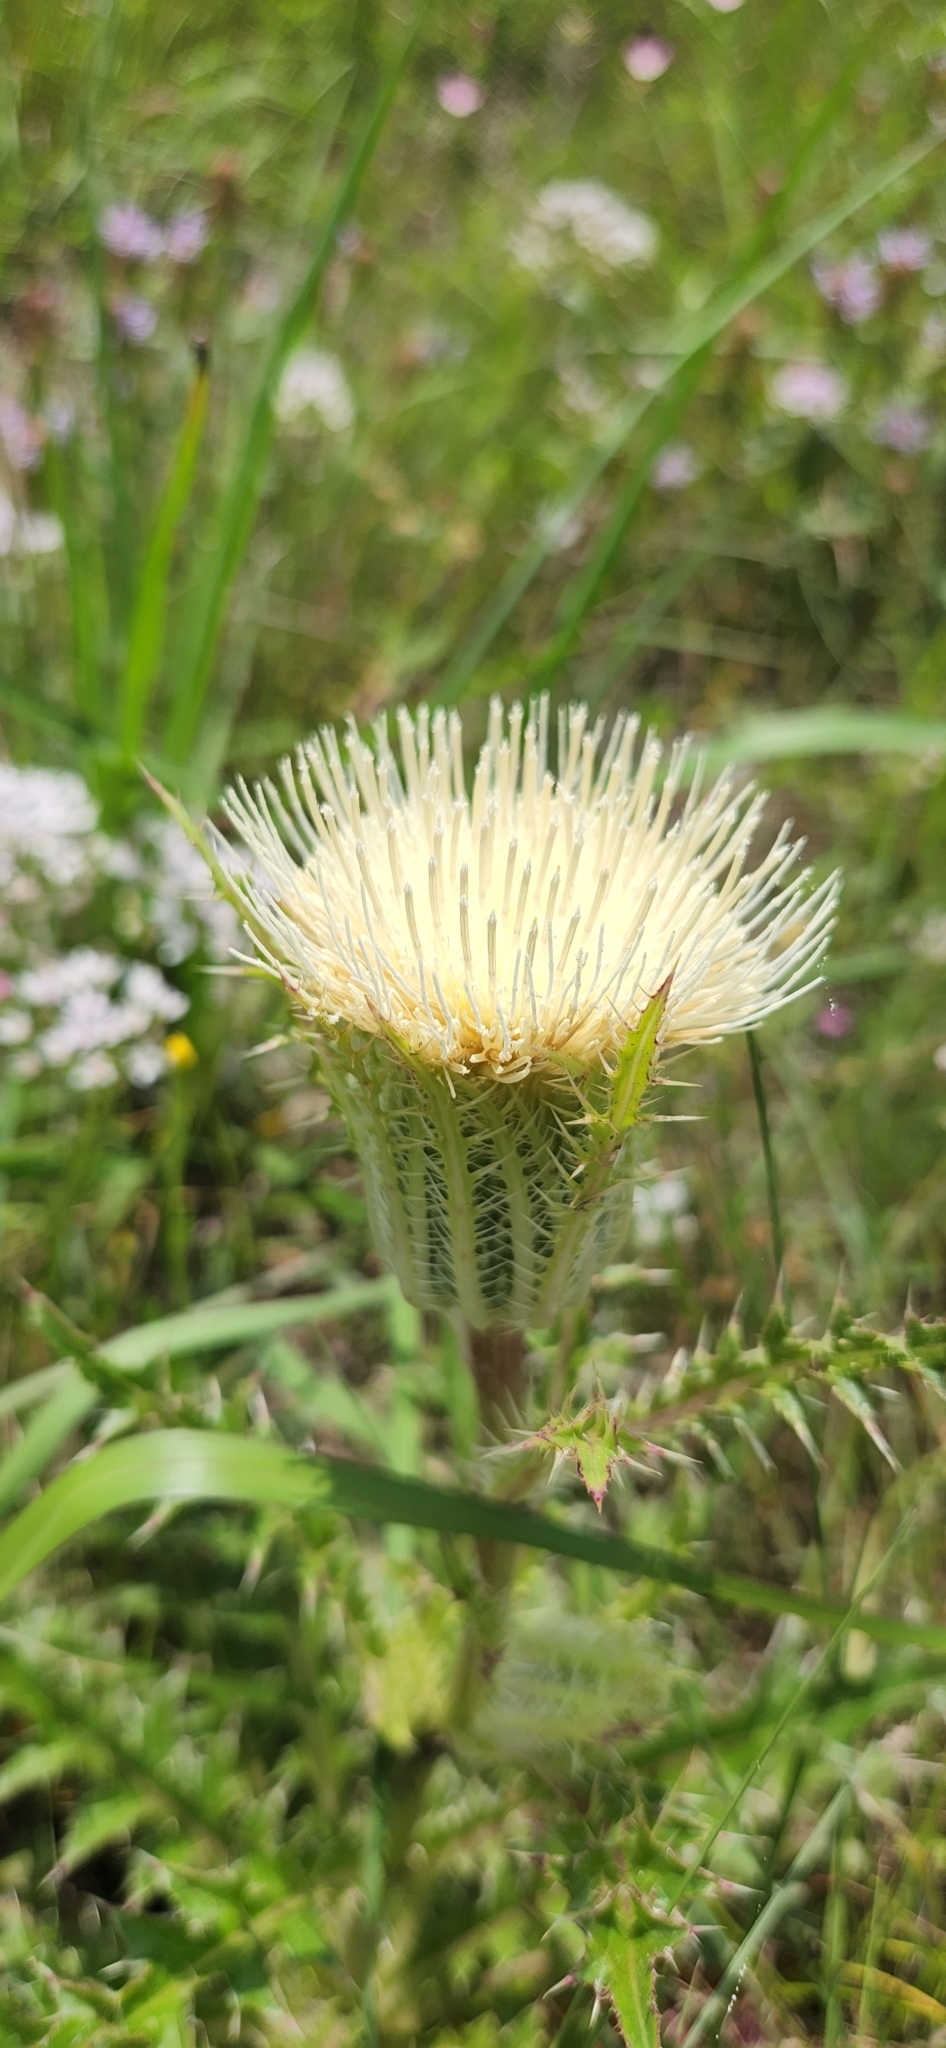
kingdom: Plantae
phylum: Tracheophyta
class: Magnoliopsida
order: Asterales
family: Asteraceae
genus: Cirsium
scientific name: Cirsium horridulum
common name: Bristly thistle
